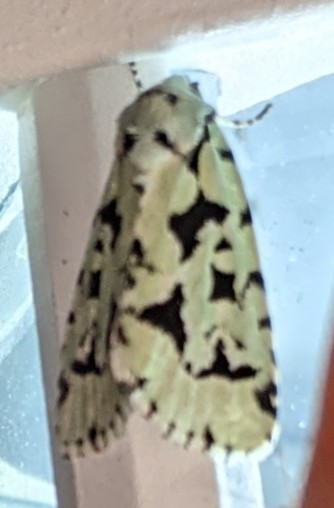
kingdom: Animalia
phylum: Arthropoda
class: Insecta
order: Lepidoptera
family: Noctuidae
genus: Acronicta
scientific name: Acronicta fallax
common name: Green marvel
